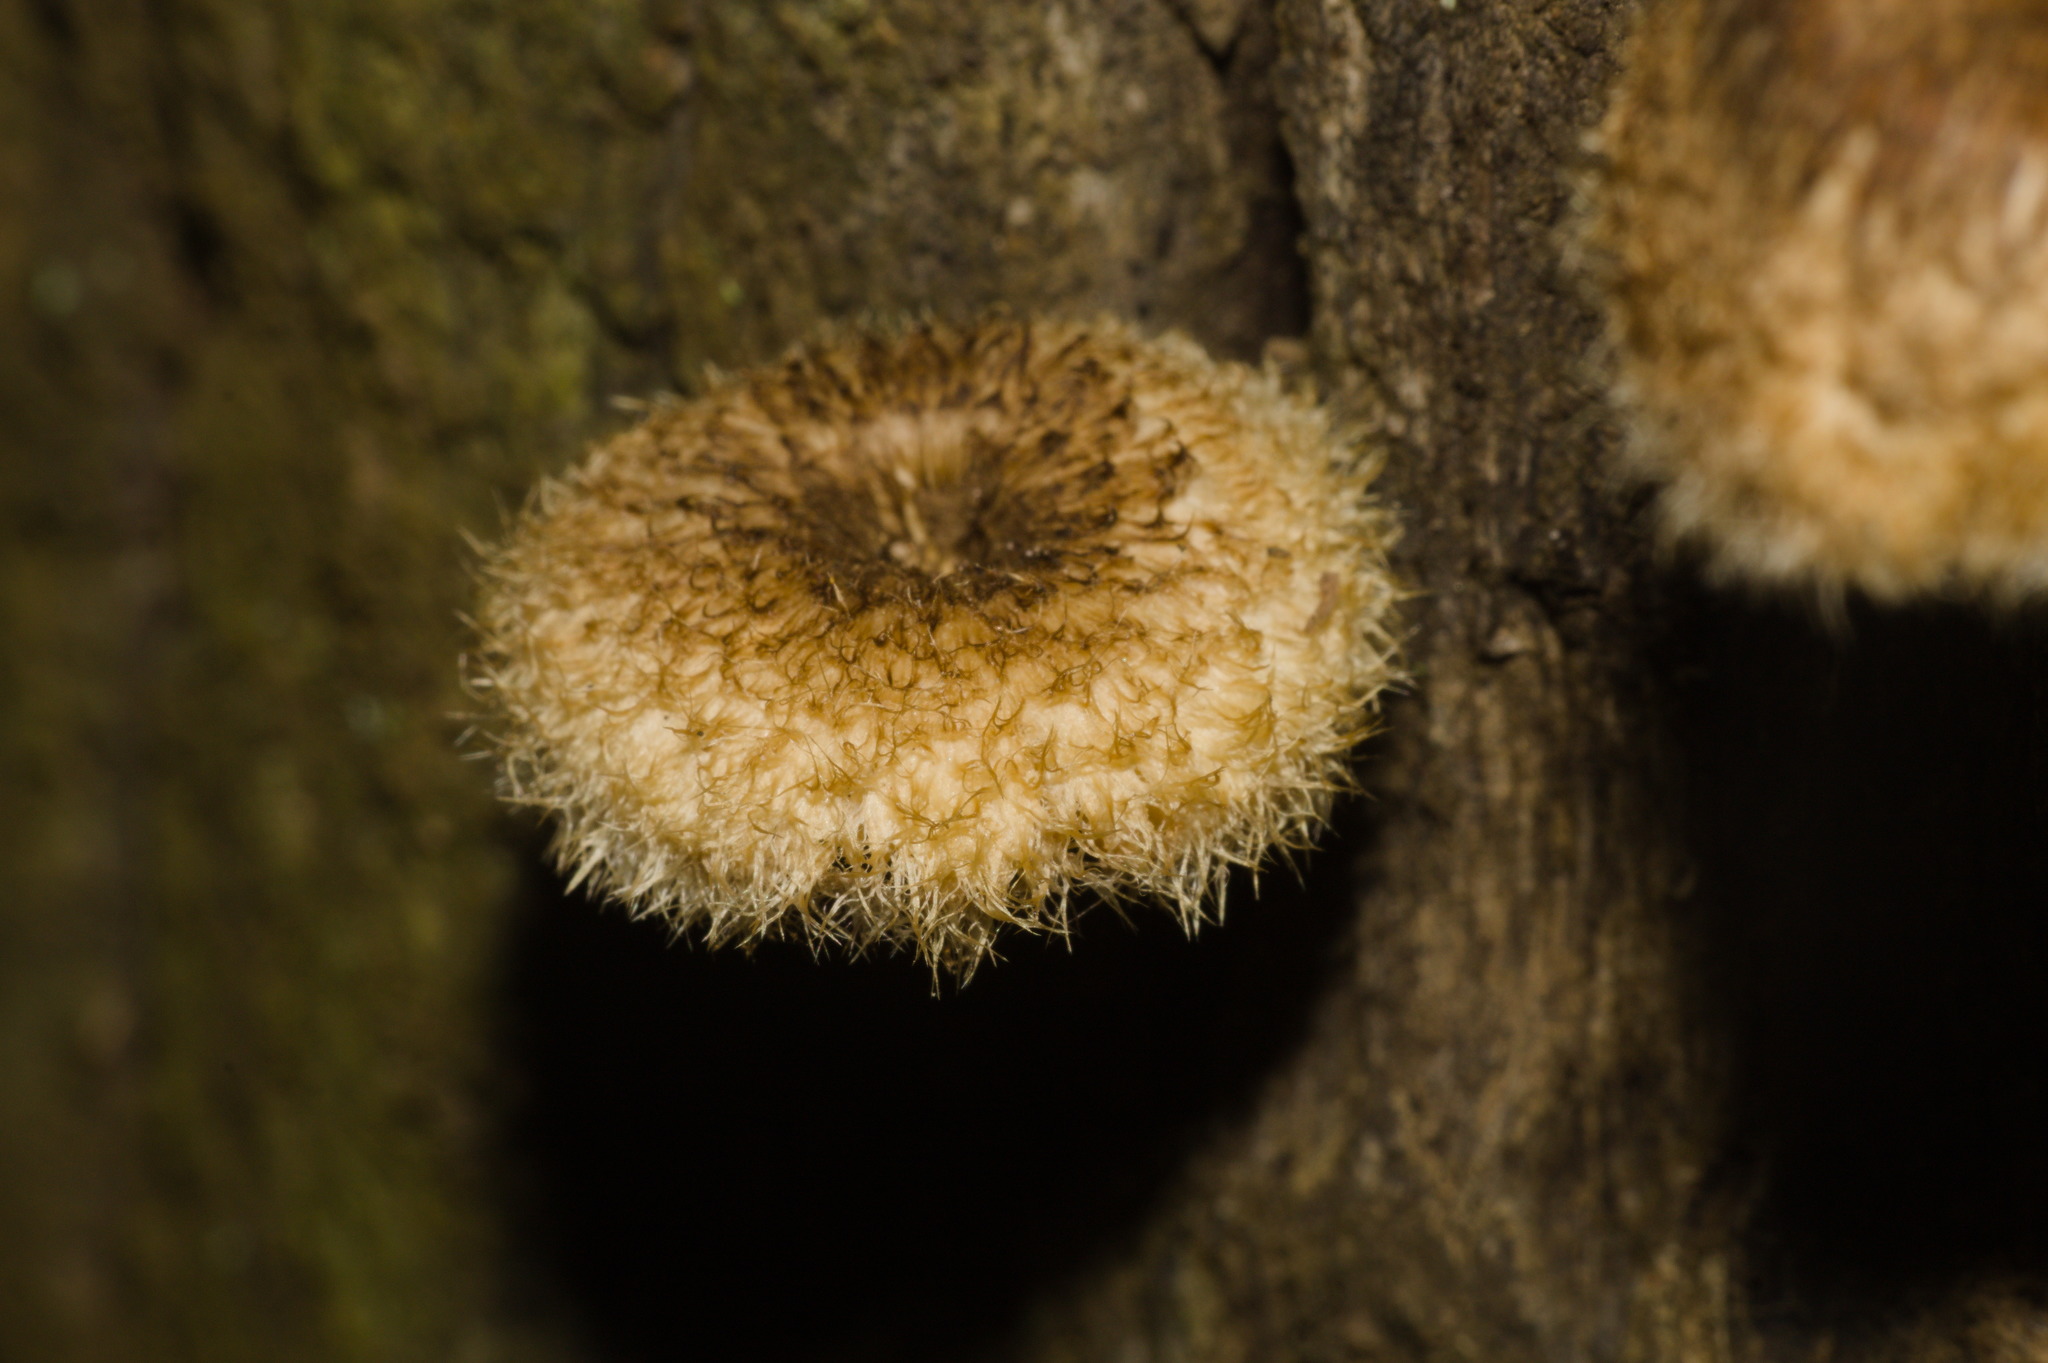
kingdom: Fungi
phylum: Basidiomycota
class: Agaricomycetes
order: Polyporales
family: Polyporaceae
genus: Lentinus
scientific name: Lentinus crinitus
